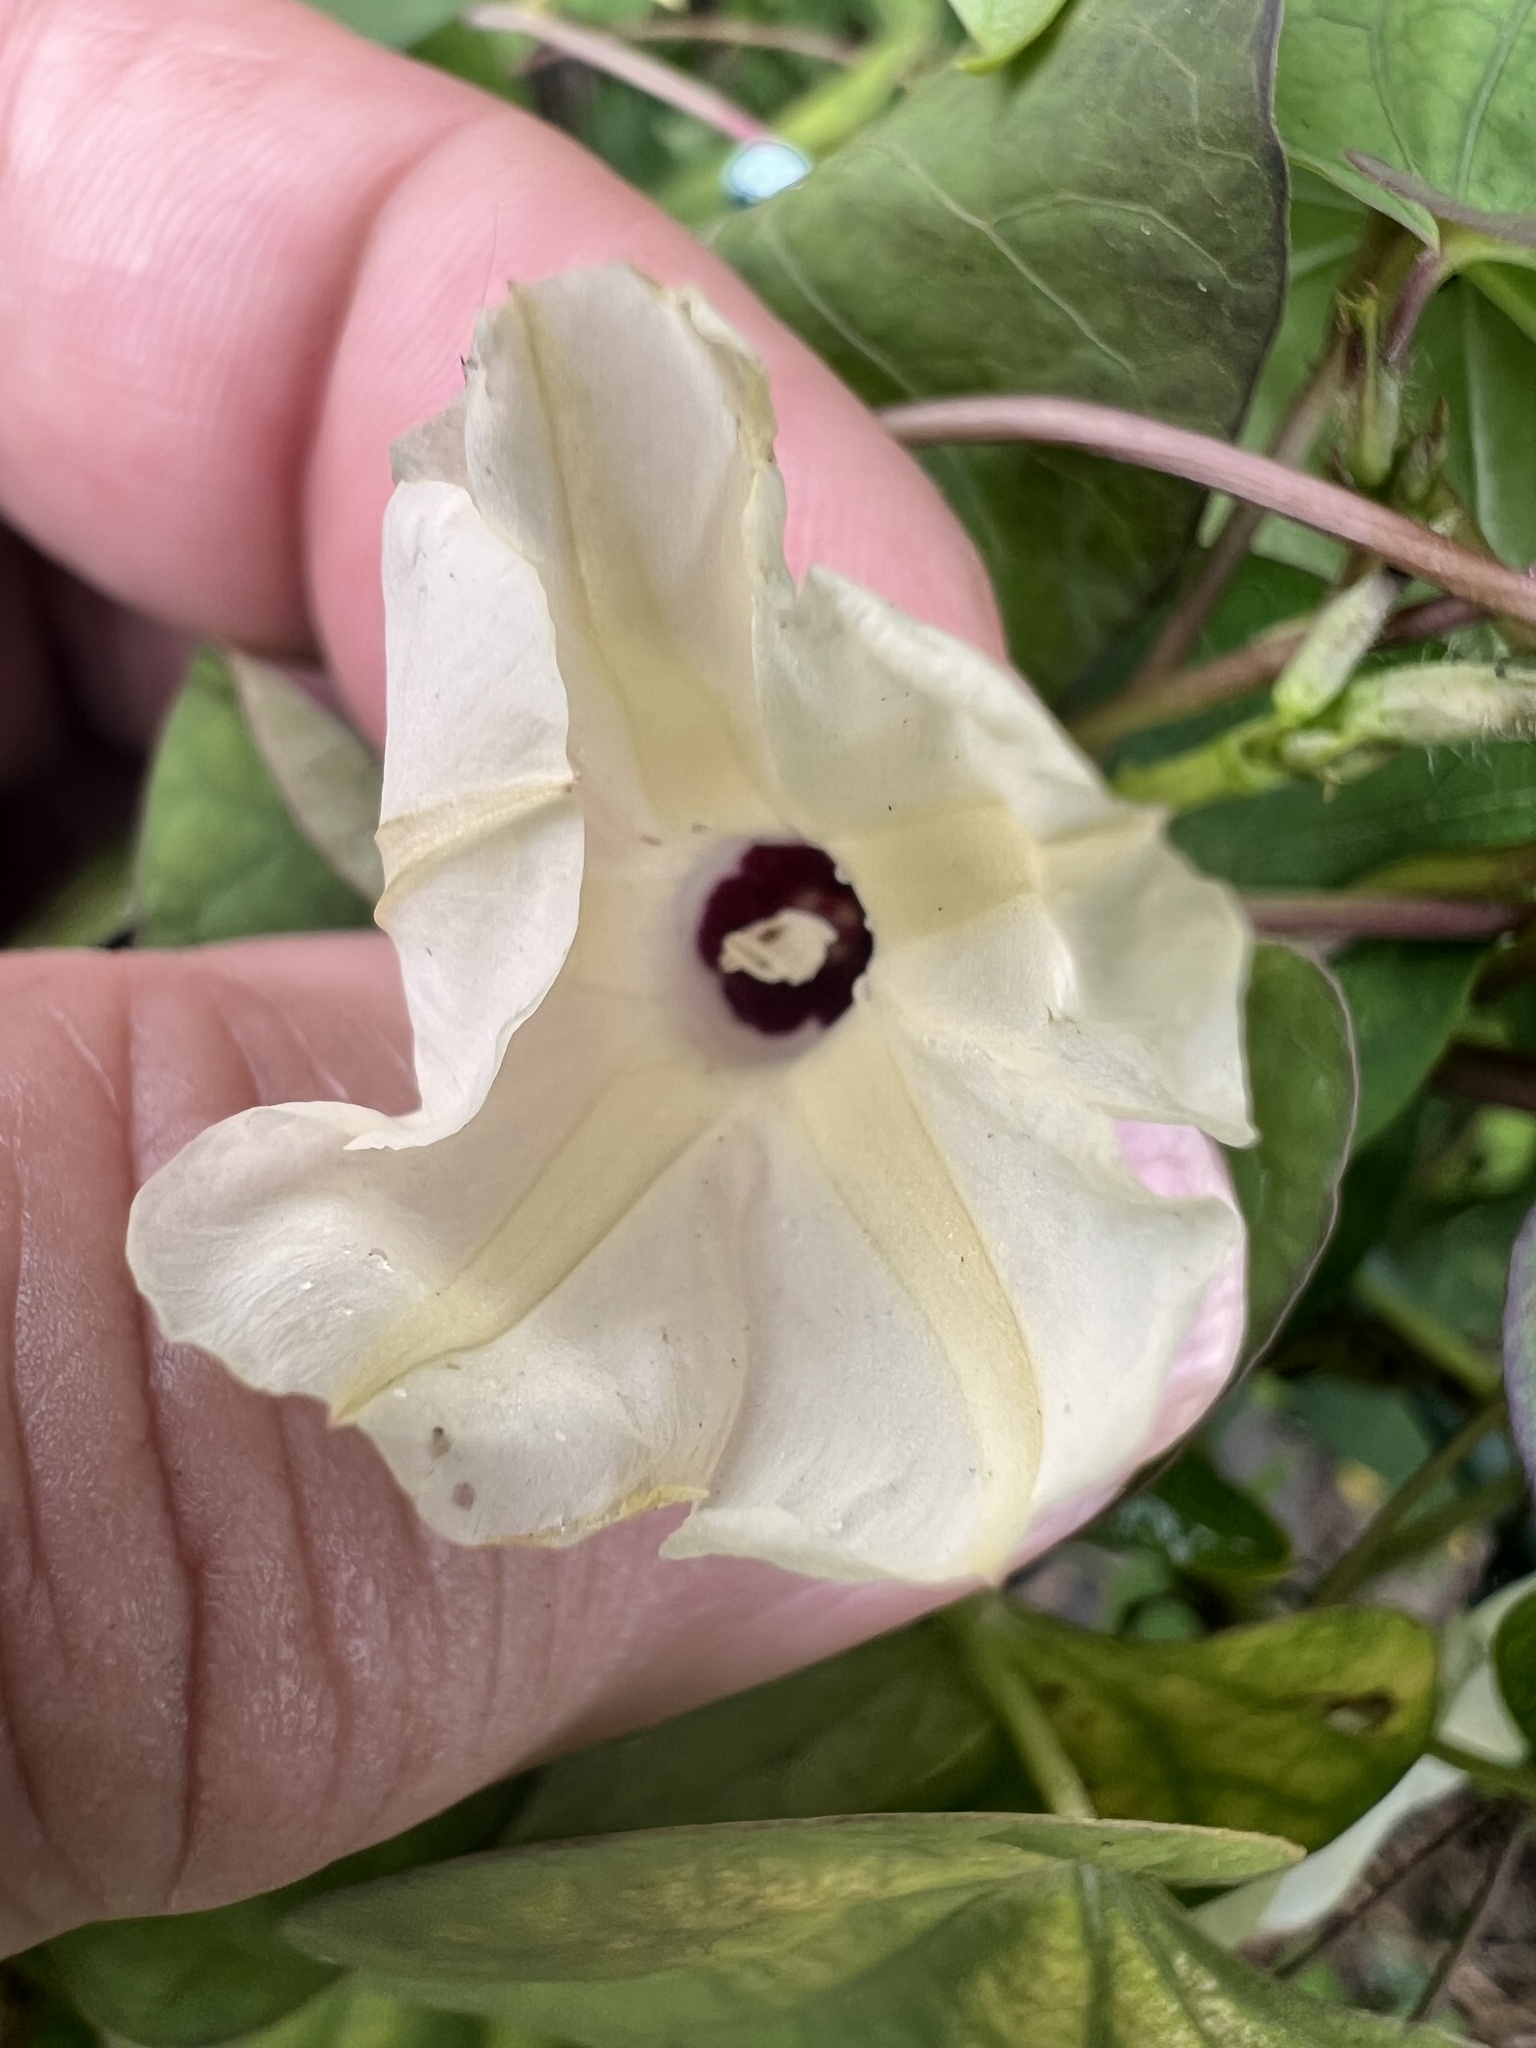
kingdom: Plantae
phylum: Tracheophyta
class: Magnoliopsida
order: Solanales
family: Convolvulaceae
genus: Ipomoea
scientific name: Ipomoea obscura
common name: Obscure morning-glory
